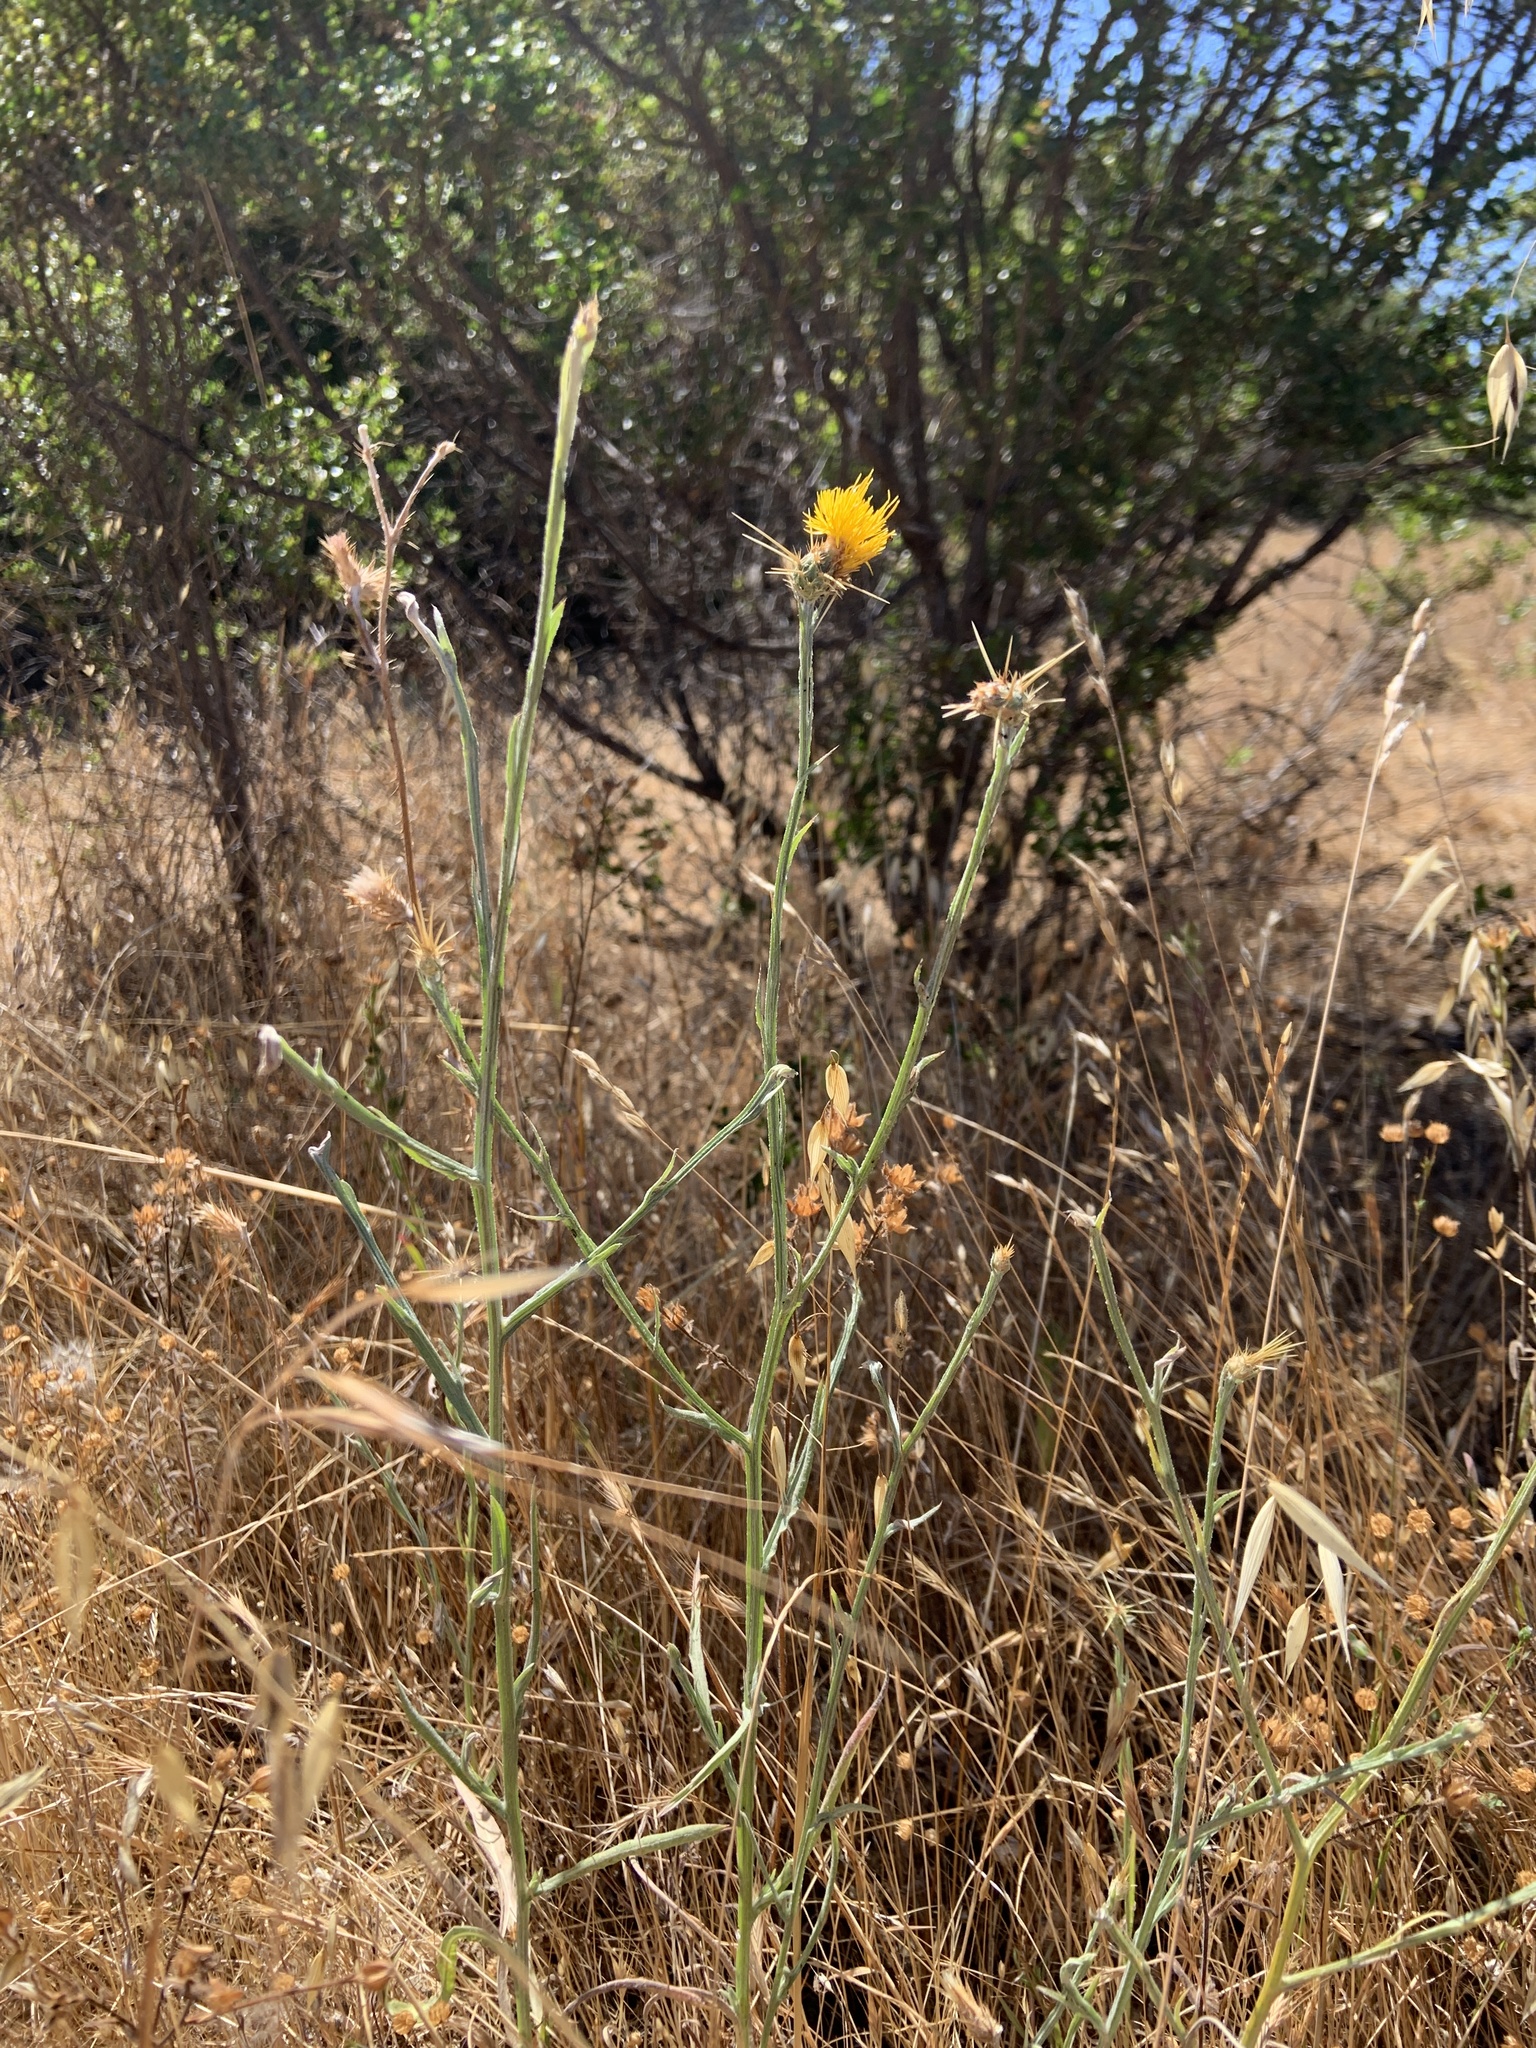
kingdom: Plantae
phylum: Tracheophyta
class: Magnoliopsida
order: Asterales
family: Asteraceae
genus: Centaurea
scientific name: Centaurea solstitialis
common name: Yellow star-thistle
